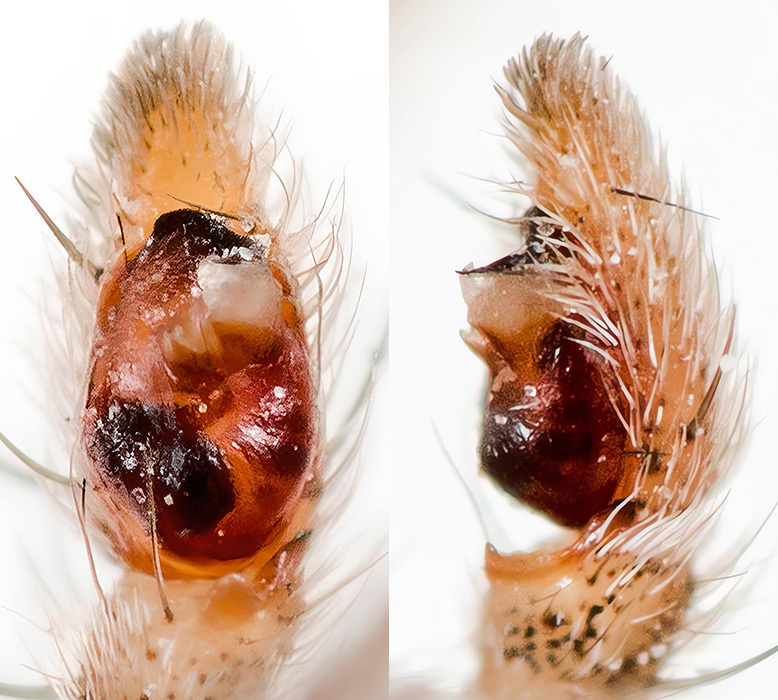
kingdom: Animalia
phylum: Arthropoda
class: Arachnida
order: Araneae
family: Philodromidae
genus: Thanatus
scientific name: Thanatus vulgaris
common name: European running crab spider
